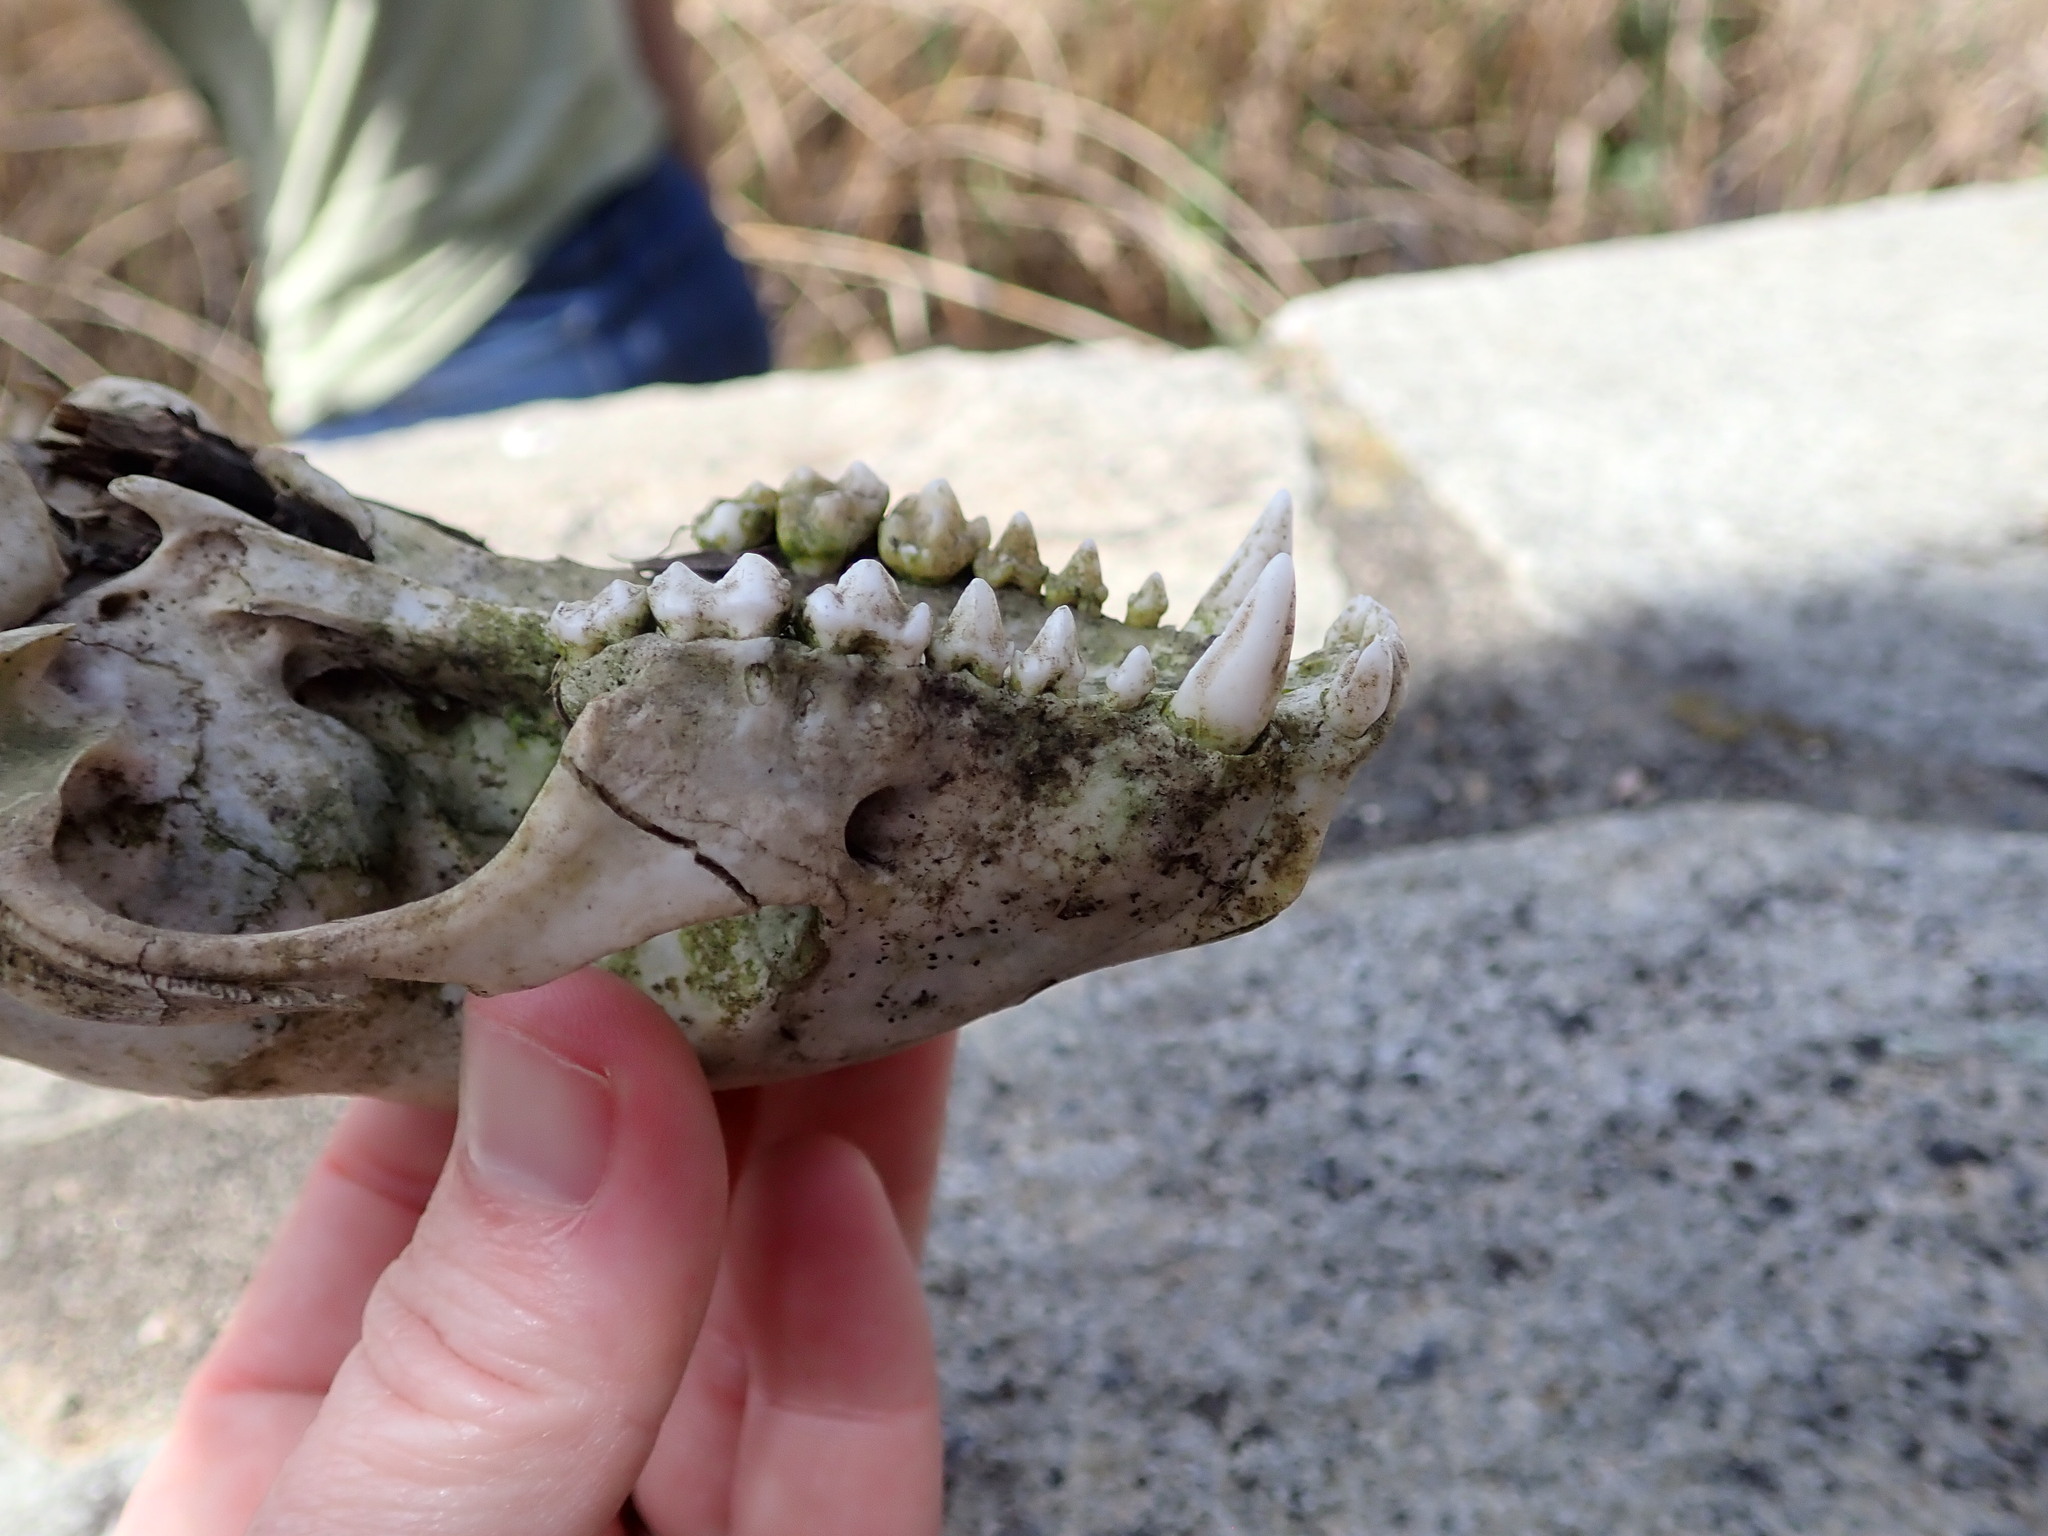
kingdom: Animalia
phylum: Chordata
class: Mammalia
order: Carnivora
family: Procyonidae
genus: Procyon
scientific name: Procyon lotor
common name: Raccoon
